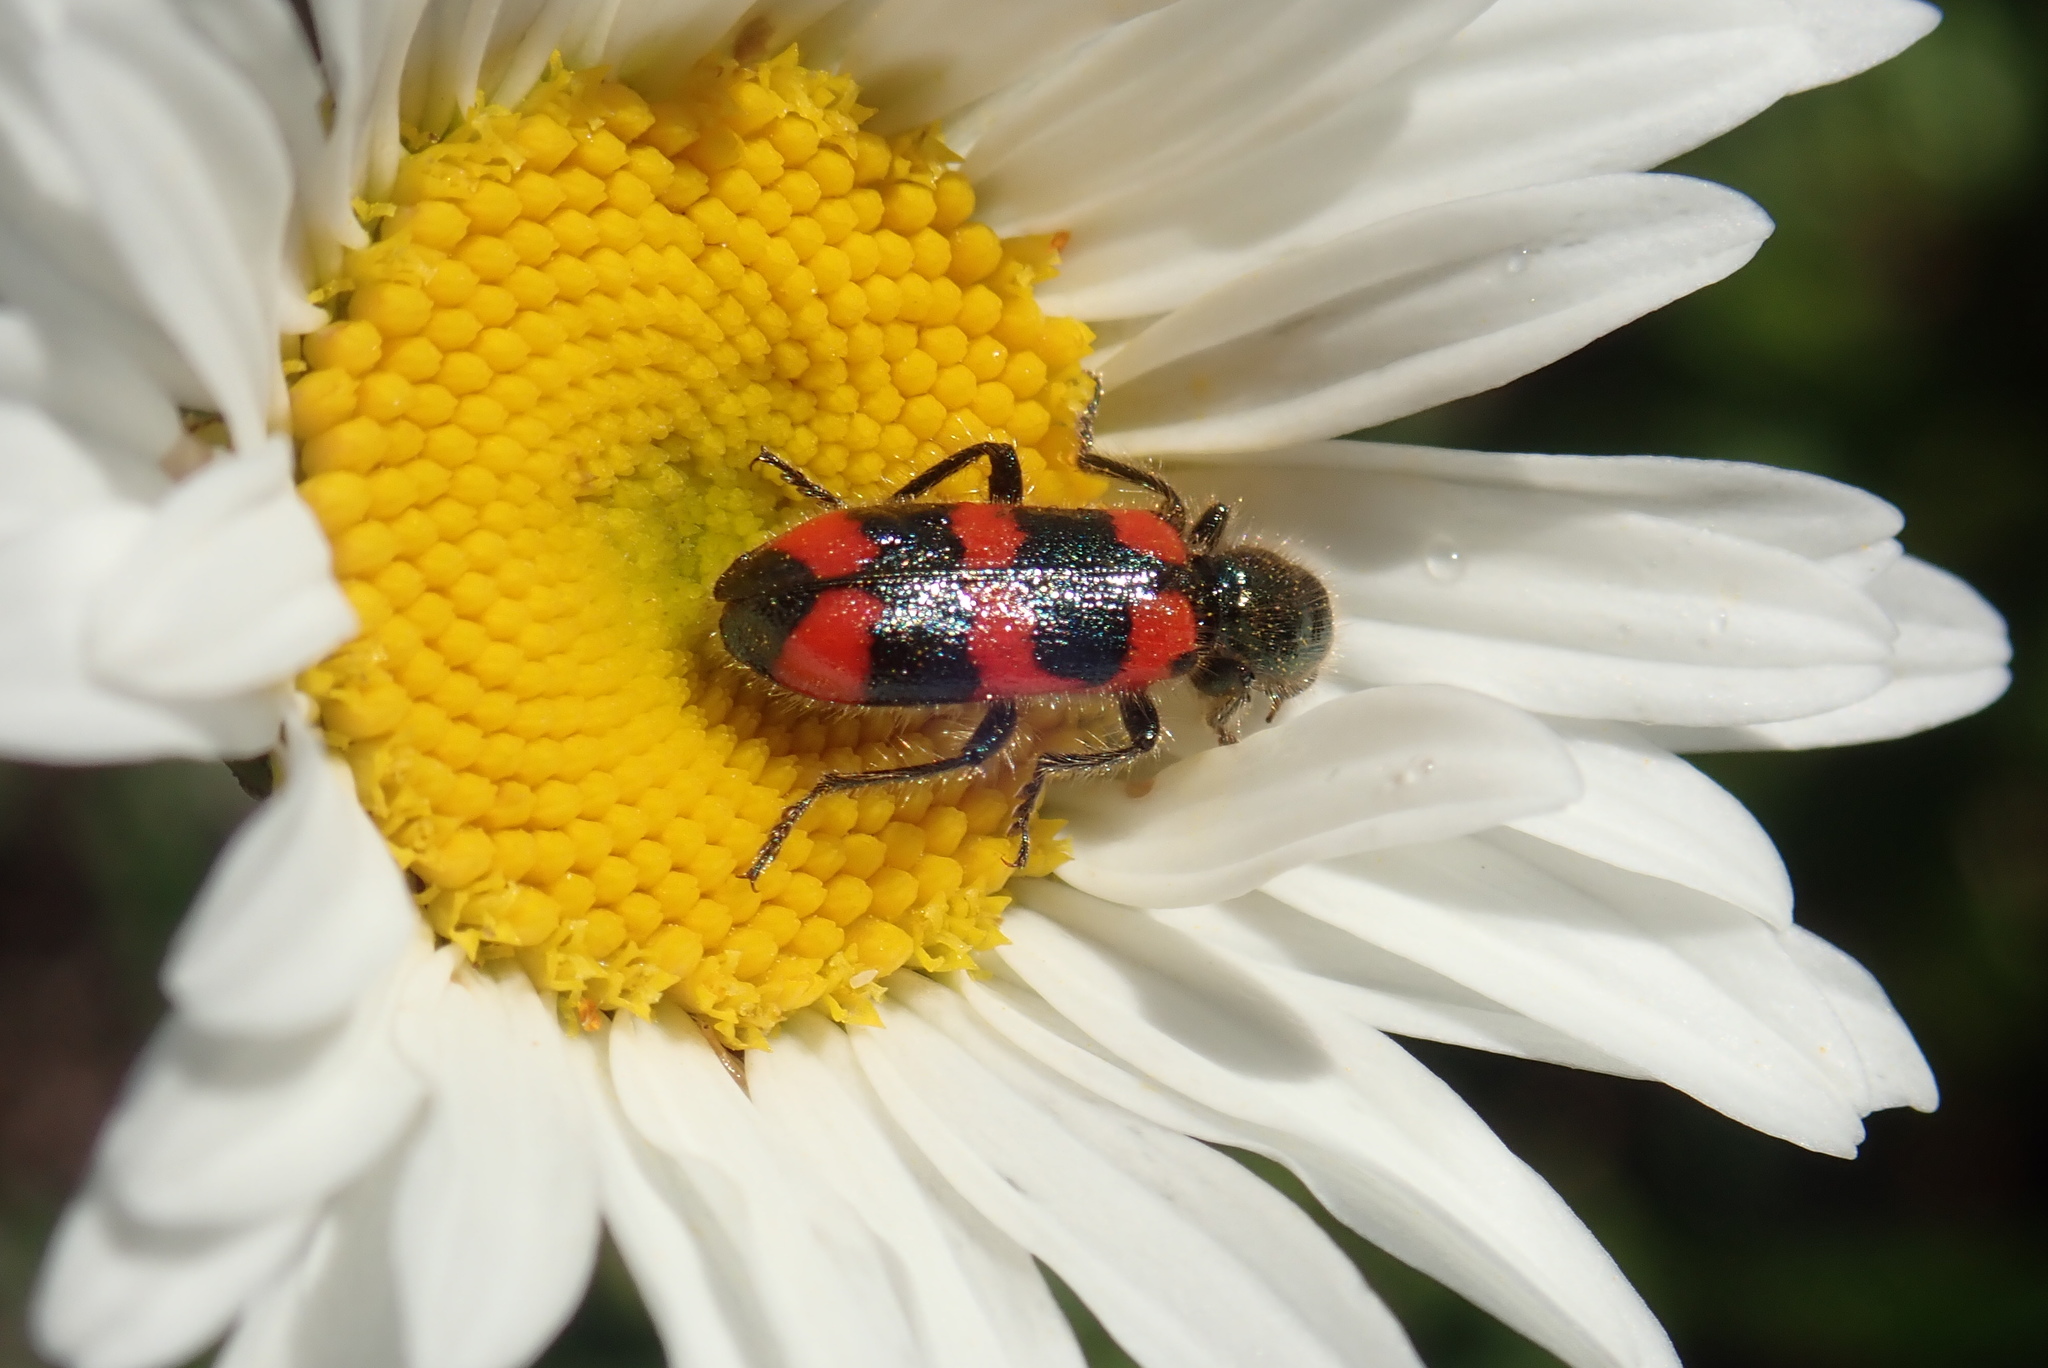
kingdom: Animalia
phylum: Arthropoda
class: Insecta
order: Coleoptera
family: Cleridae
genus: Trichodes
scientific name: Trichodes nutalli
